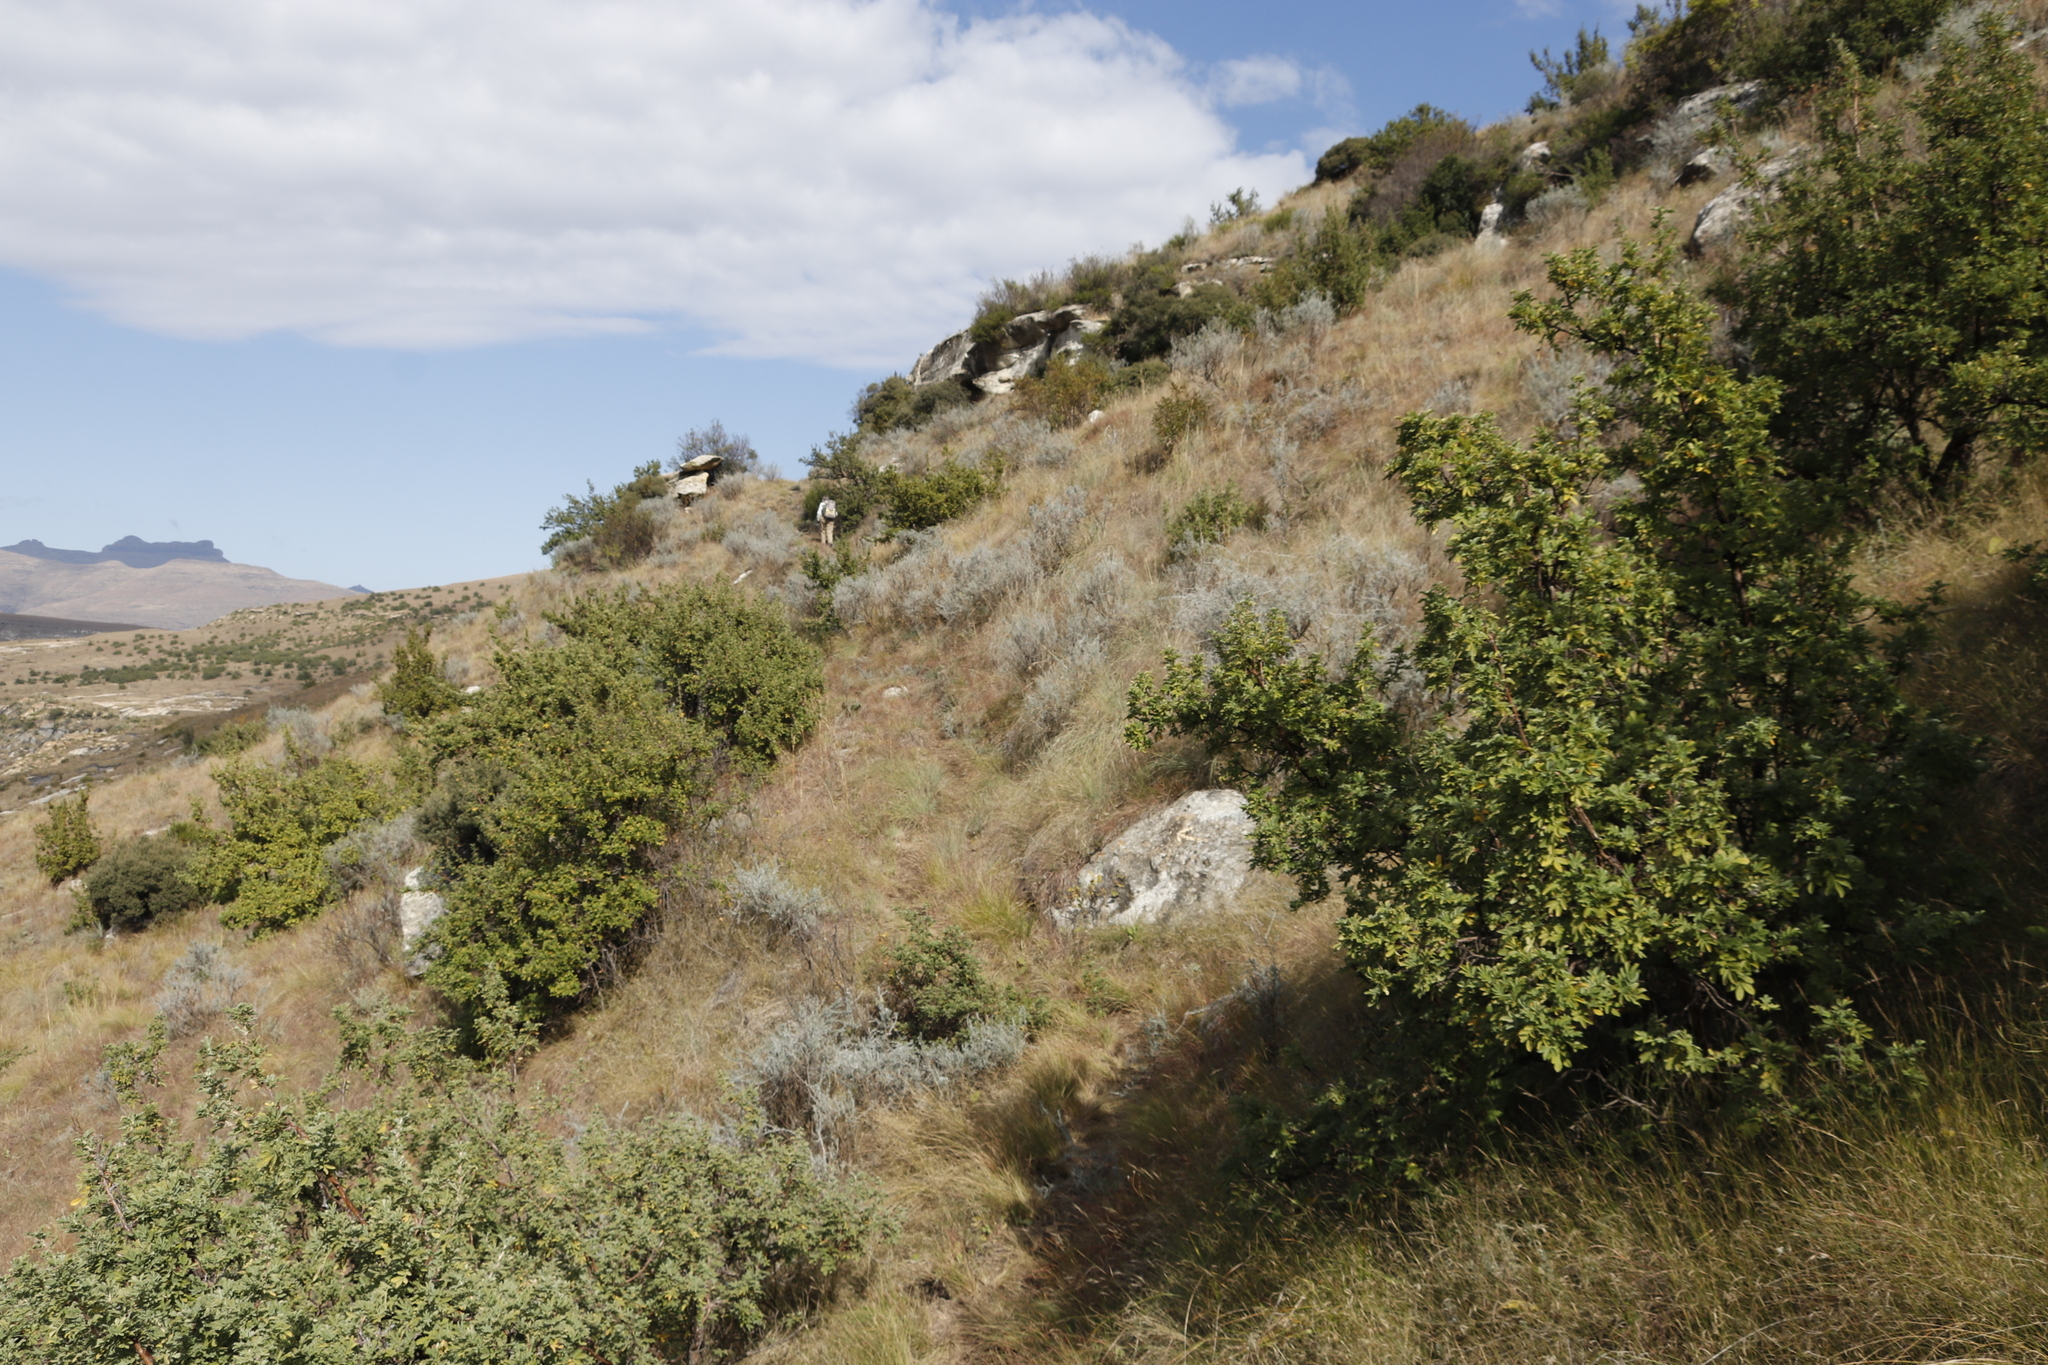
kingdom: Plantae
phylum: Tracheophyta
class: Magnoliopsida
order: Rosales
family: Rosaceae
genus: Leucosidea
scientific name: Leucosidea sericea
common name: Oldwood
